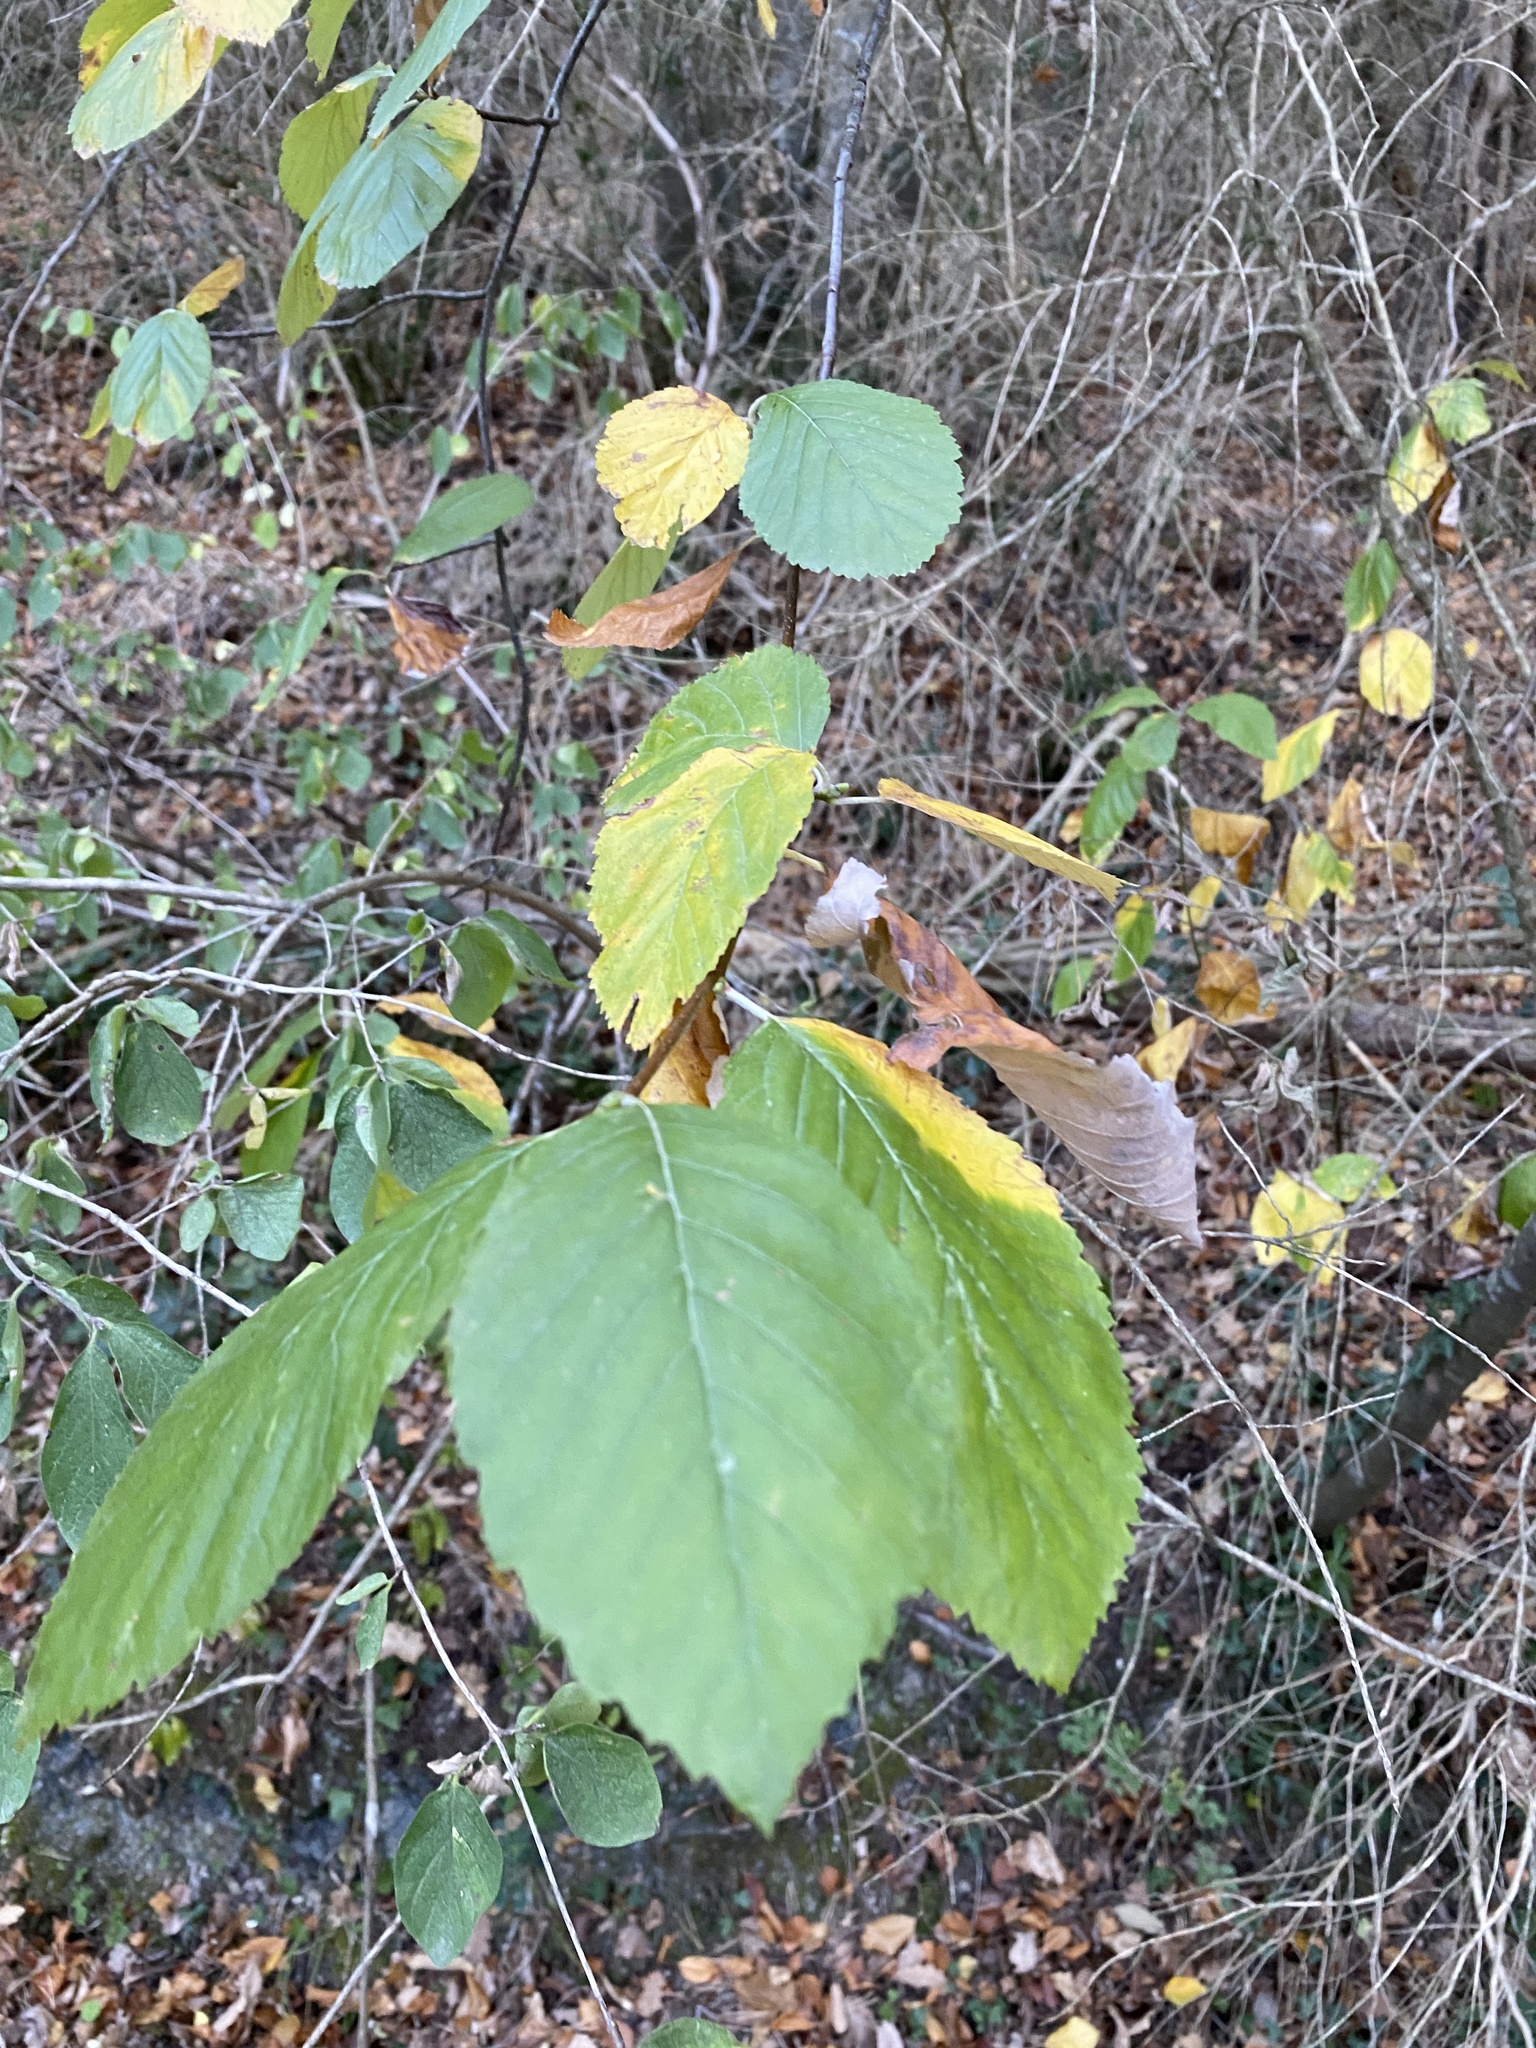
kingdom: Plantae
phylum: Tracheophyta
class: Magnoliopsida
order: Rosales
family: Rosaceae
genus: Aria
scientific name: Aria edulis
